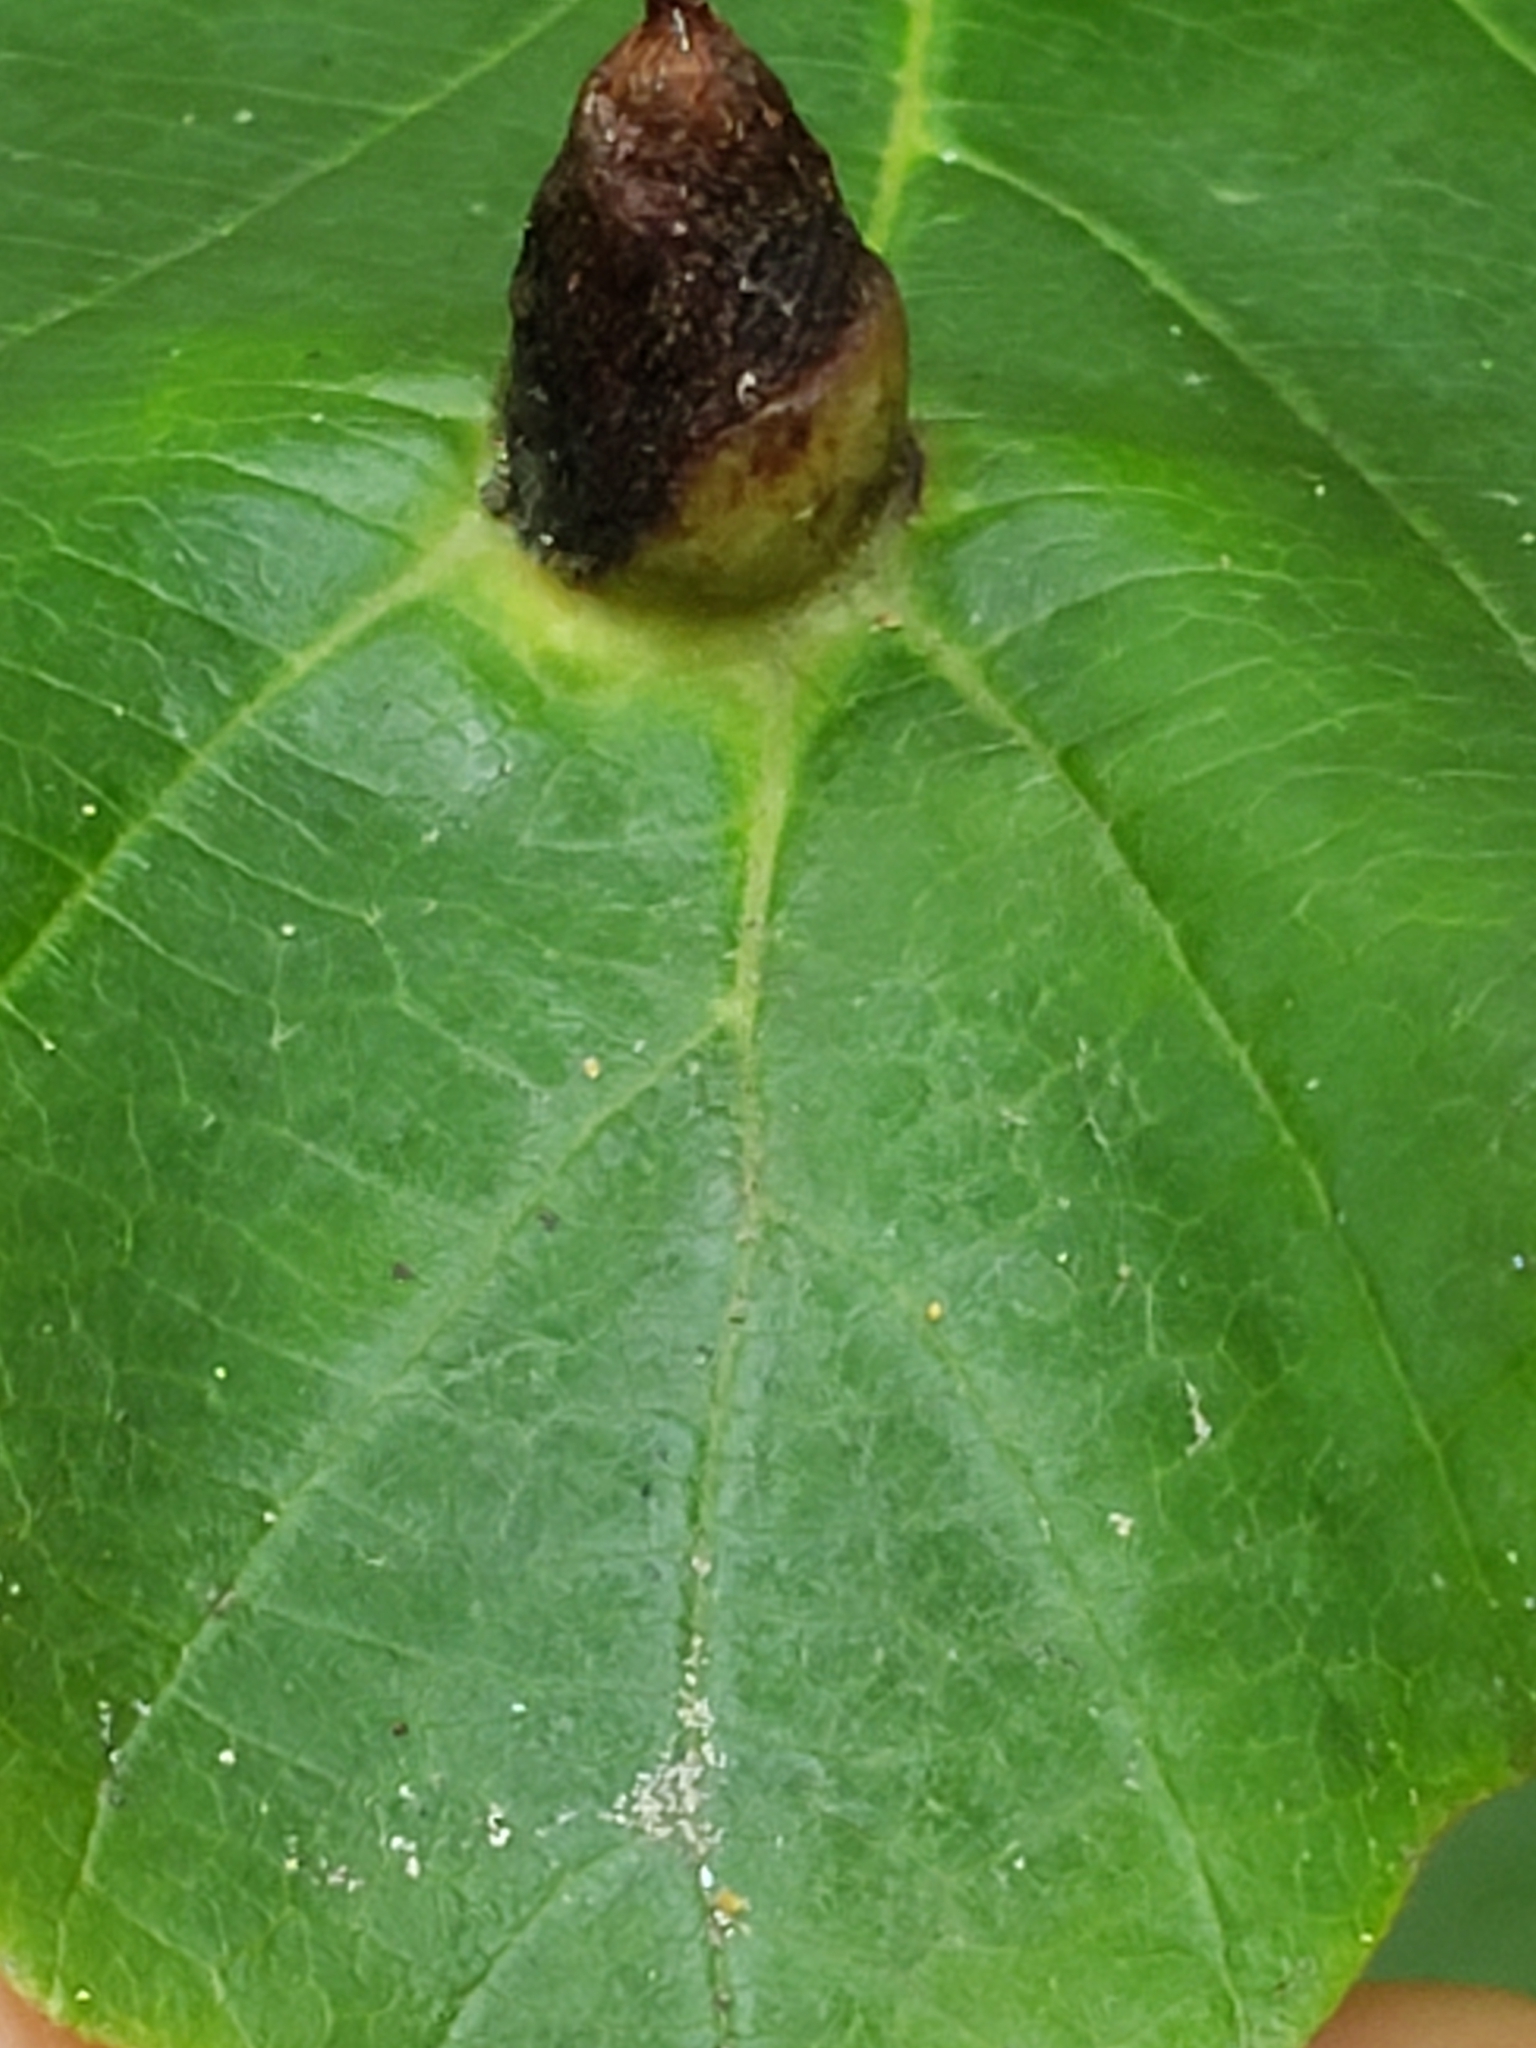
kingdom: Animalia
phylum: Arthropoda
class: Insecta
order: Hemiptera
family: Aphididae
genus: Hormaphis
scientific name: Hormaphis hamamelidis
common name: Witch-hazel cone gall aphid
